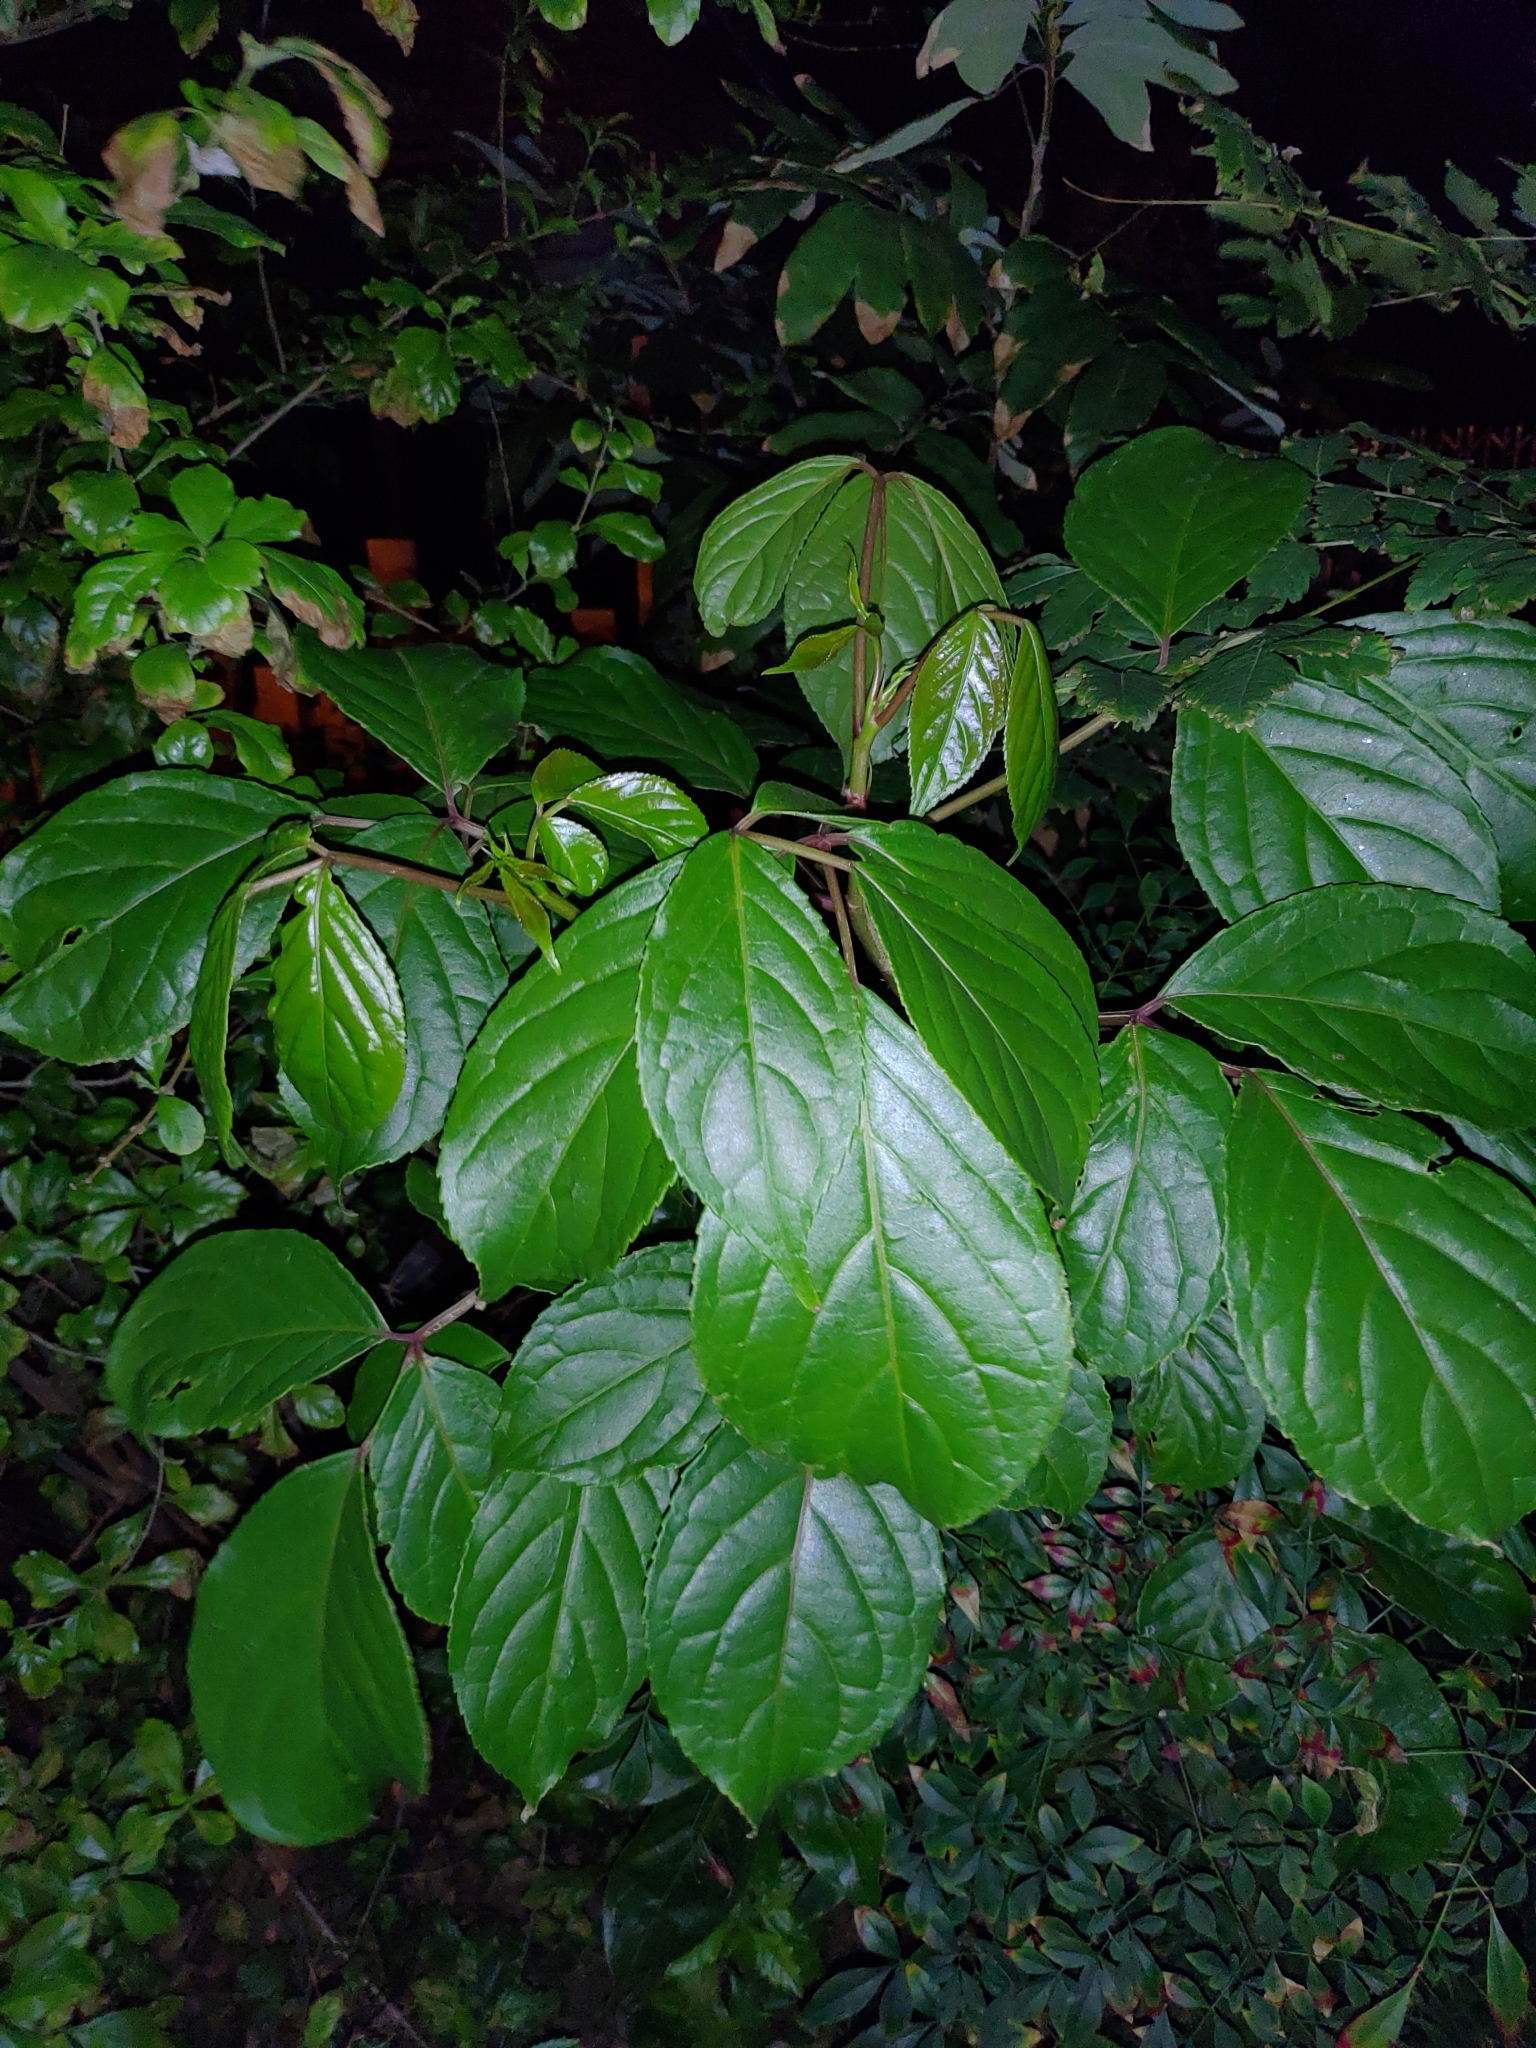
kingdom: Plantae
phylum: Tracheophyta
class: Magnoliopsida
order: Malpighiales
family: Phyllanthaceae
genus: Bischofia
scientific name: Bischofia javanica
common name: Javanese bishopwood
